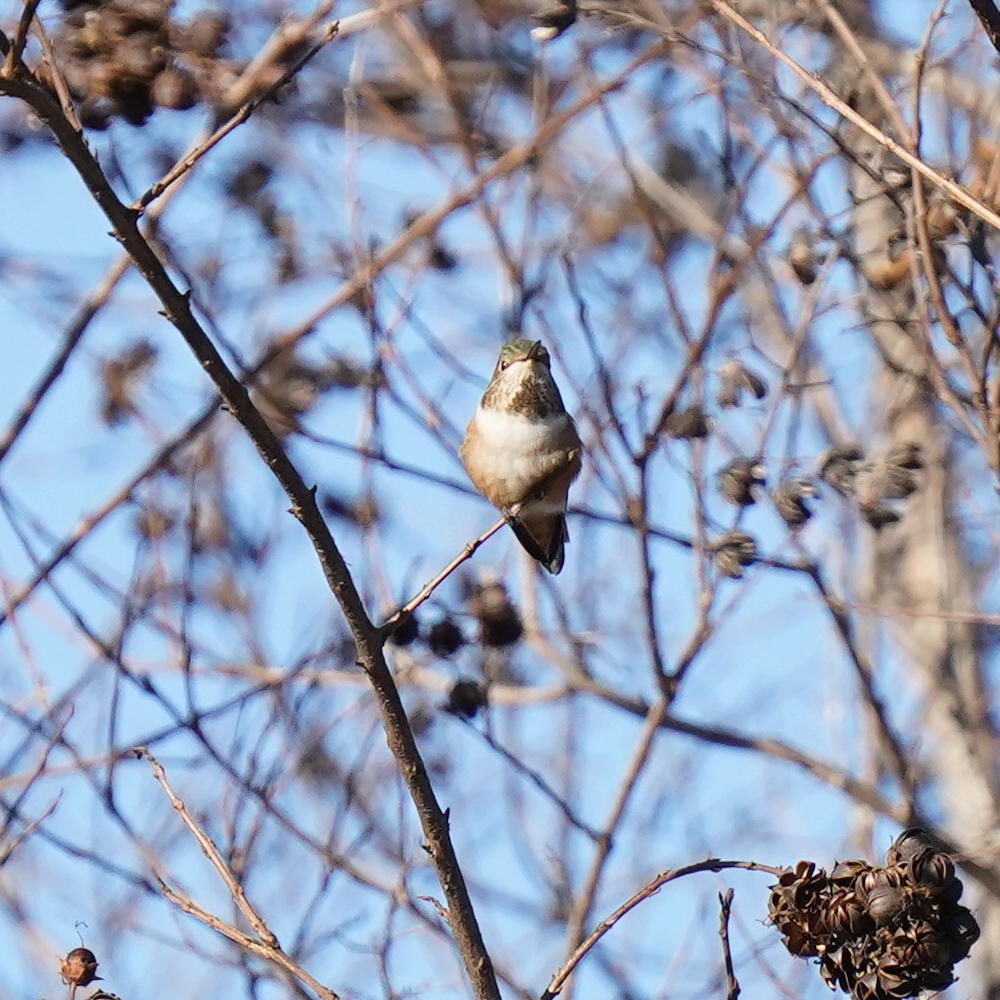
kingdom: Animalia
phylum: Chordata
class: Aves
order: Apodiformes
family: Trochilidae
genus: Selasphorus
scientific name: Selasphorus sasin
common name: Allen's hummingbird
